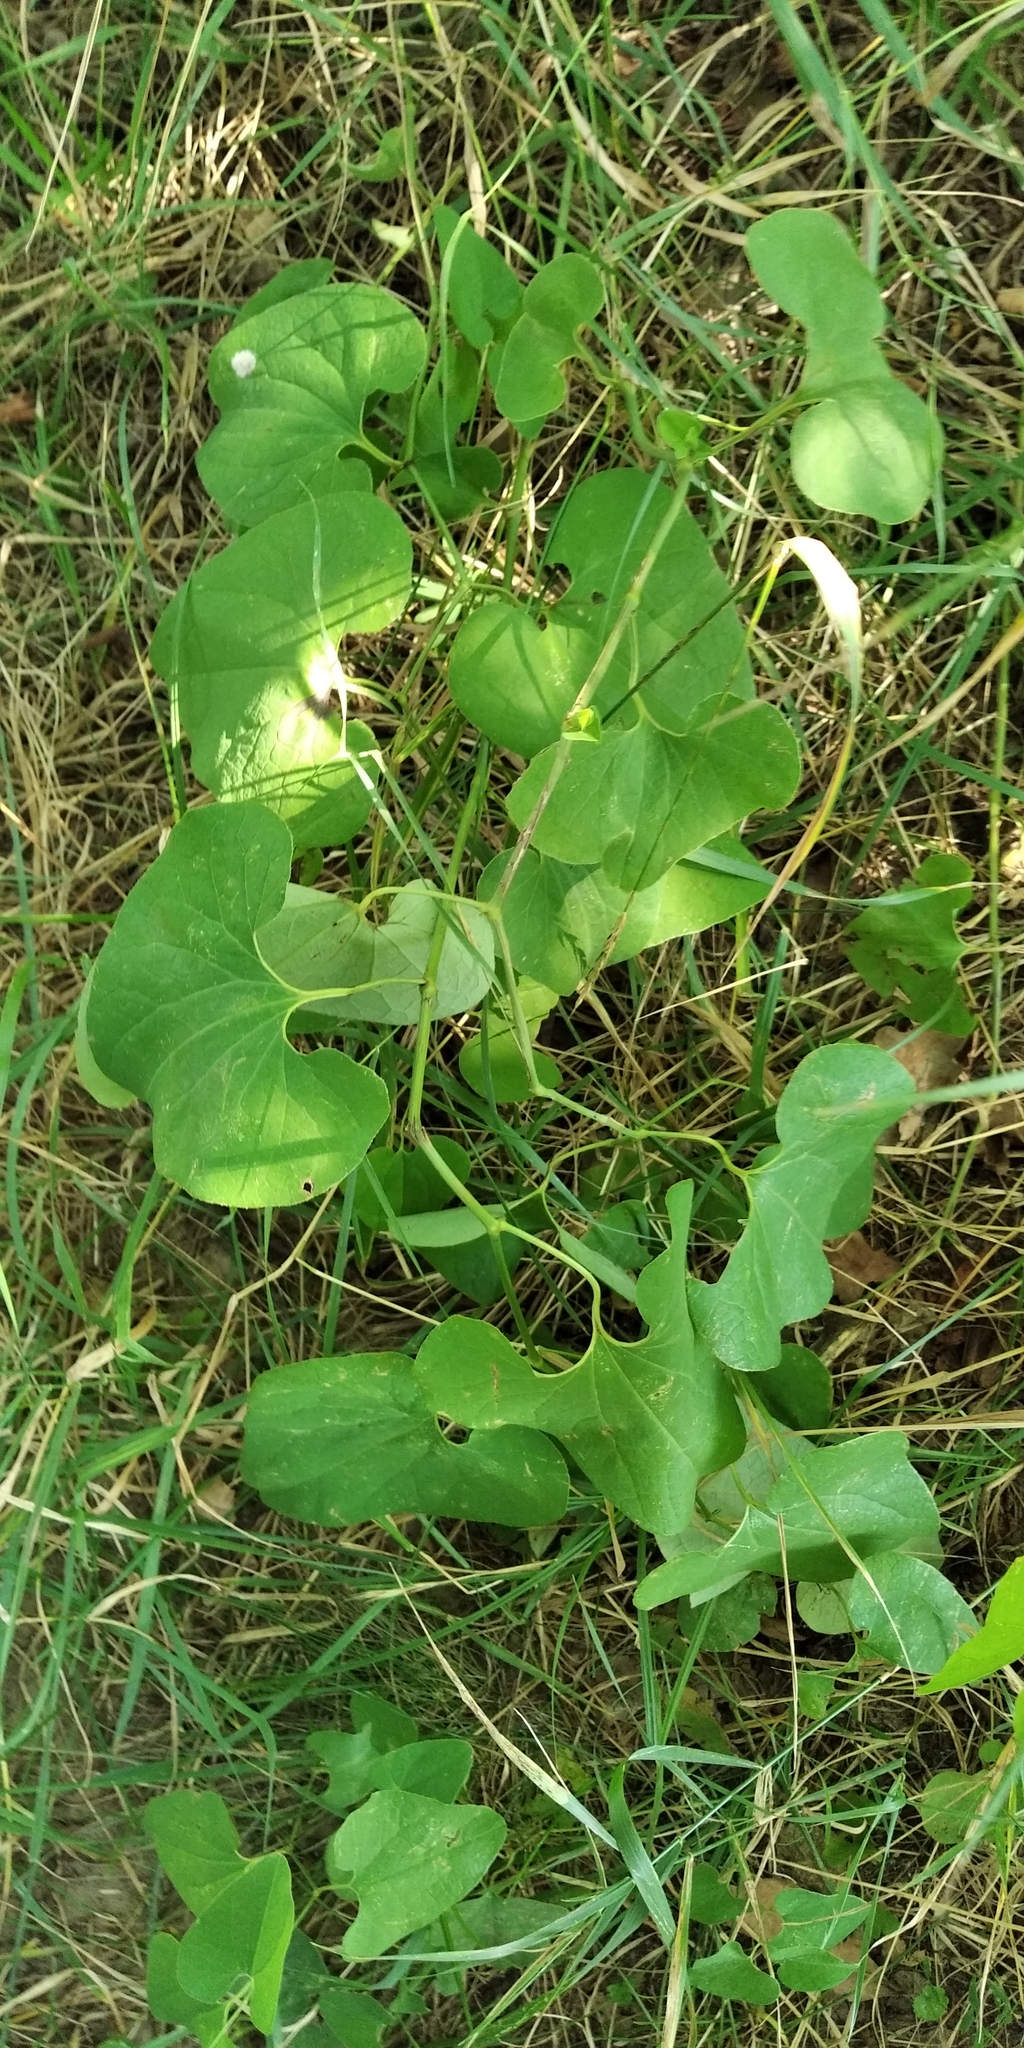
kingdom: Plantae
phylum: Tracheophyta
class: Magnoliopsida
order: Piperales
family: Aristolochiaceae
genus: Aristolochia
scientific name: Aristolochia clematitis
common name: Birthwort
